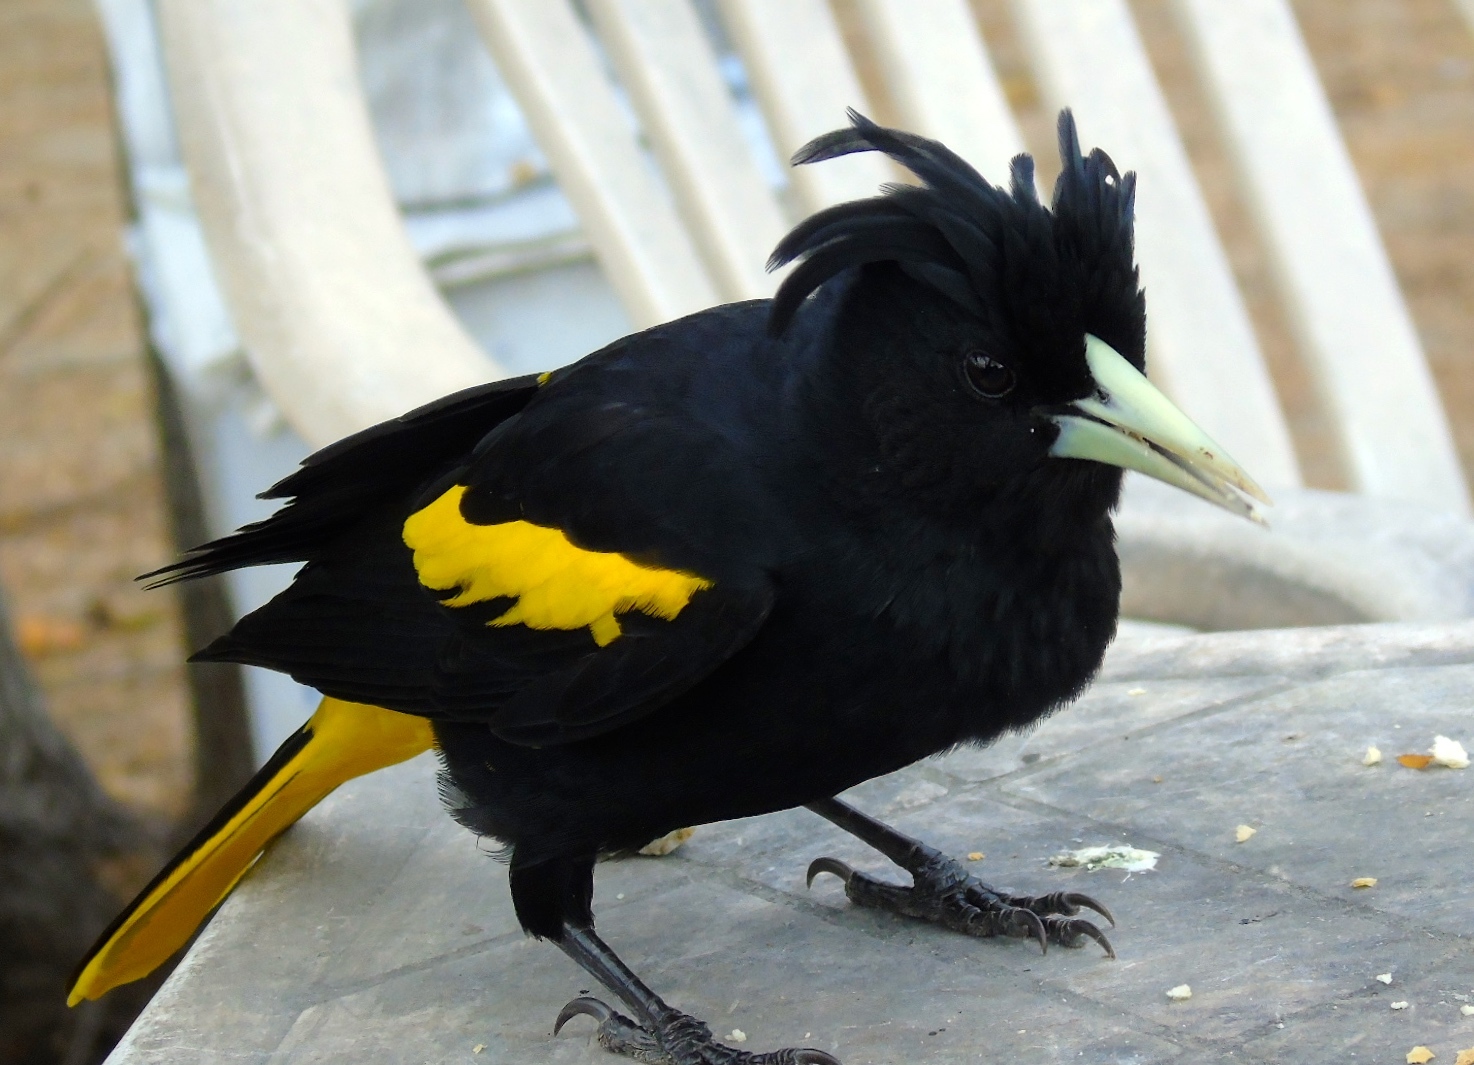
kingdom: Animalia
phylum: Chordata
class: Aves
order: Passeriformes
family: Icteridae
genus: Cacicus
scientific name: Cacicus melanicterus
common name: Yellow-winged cacique
